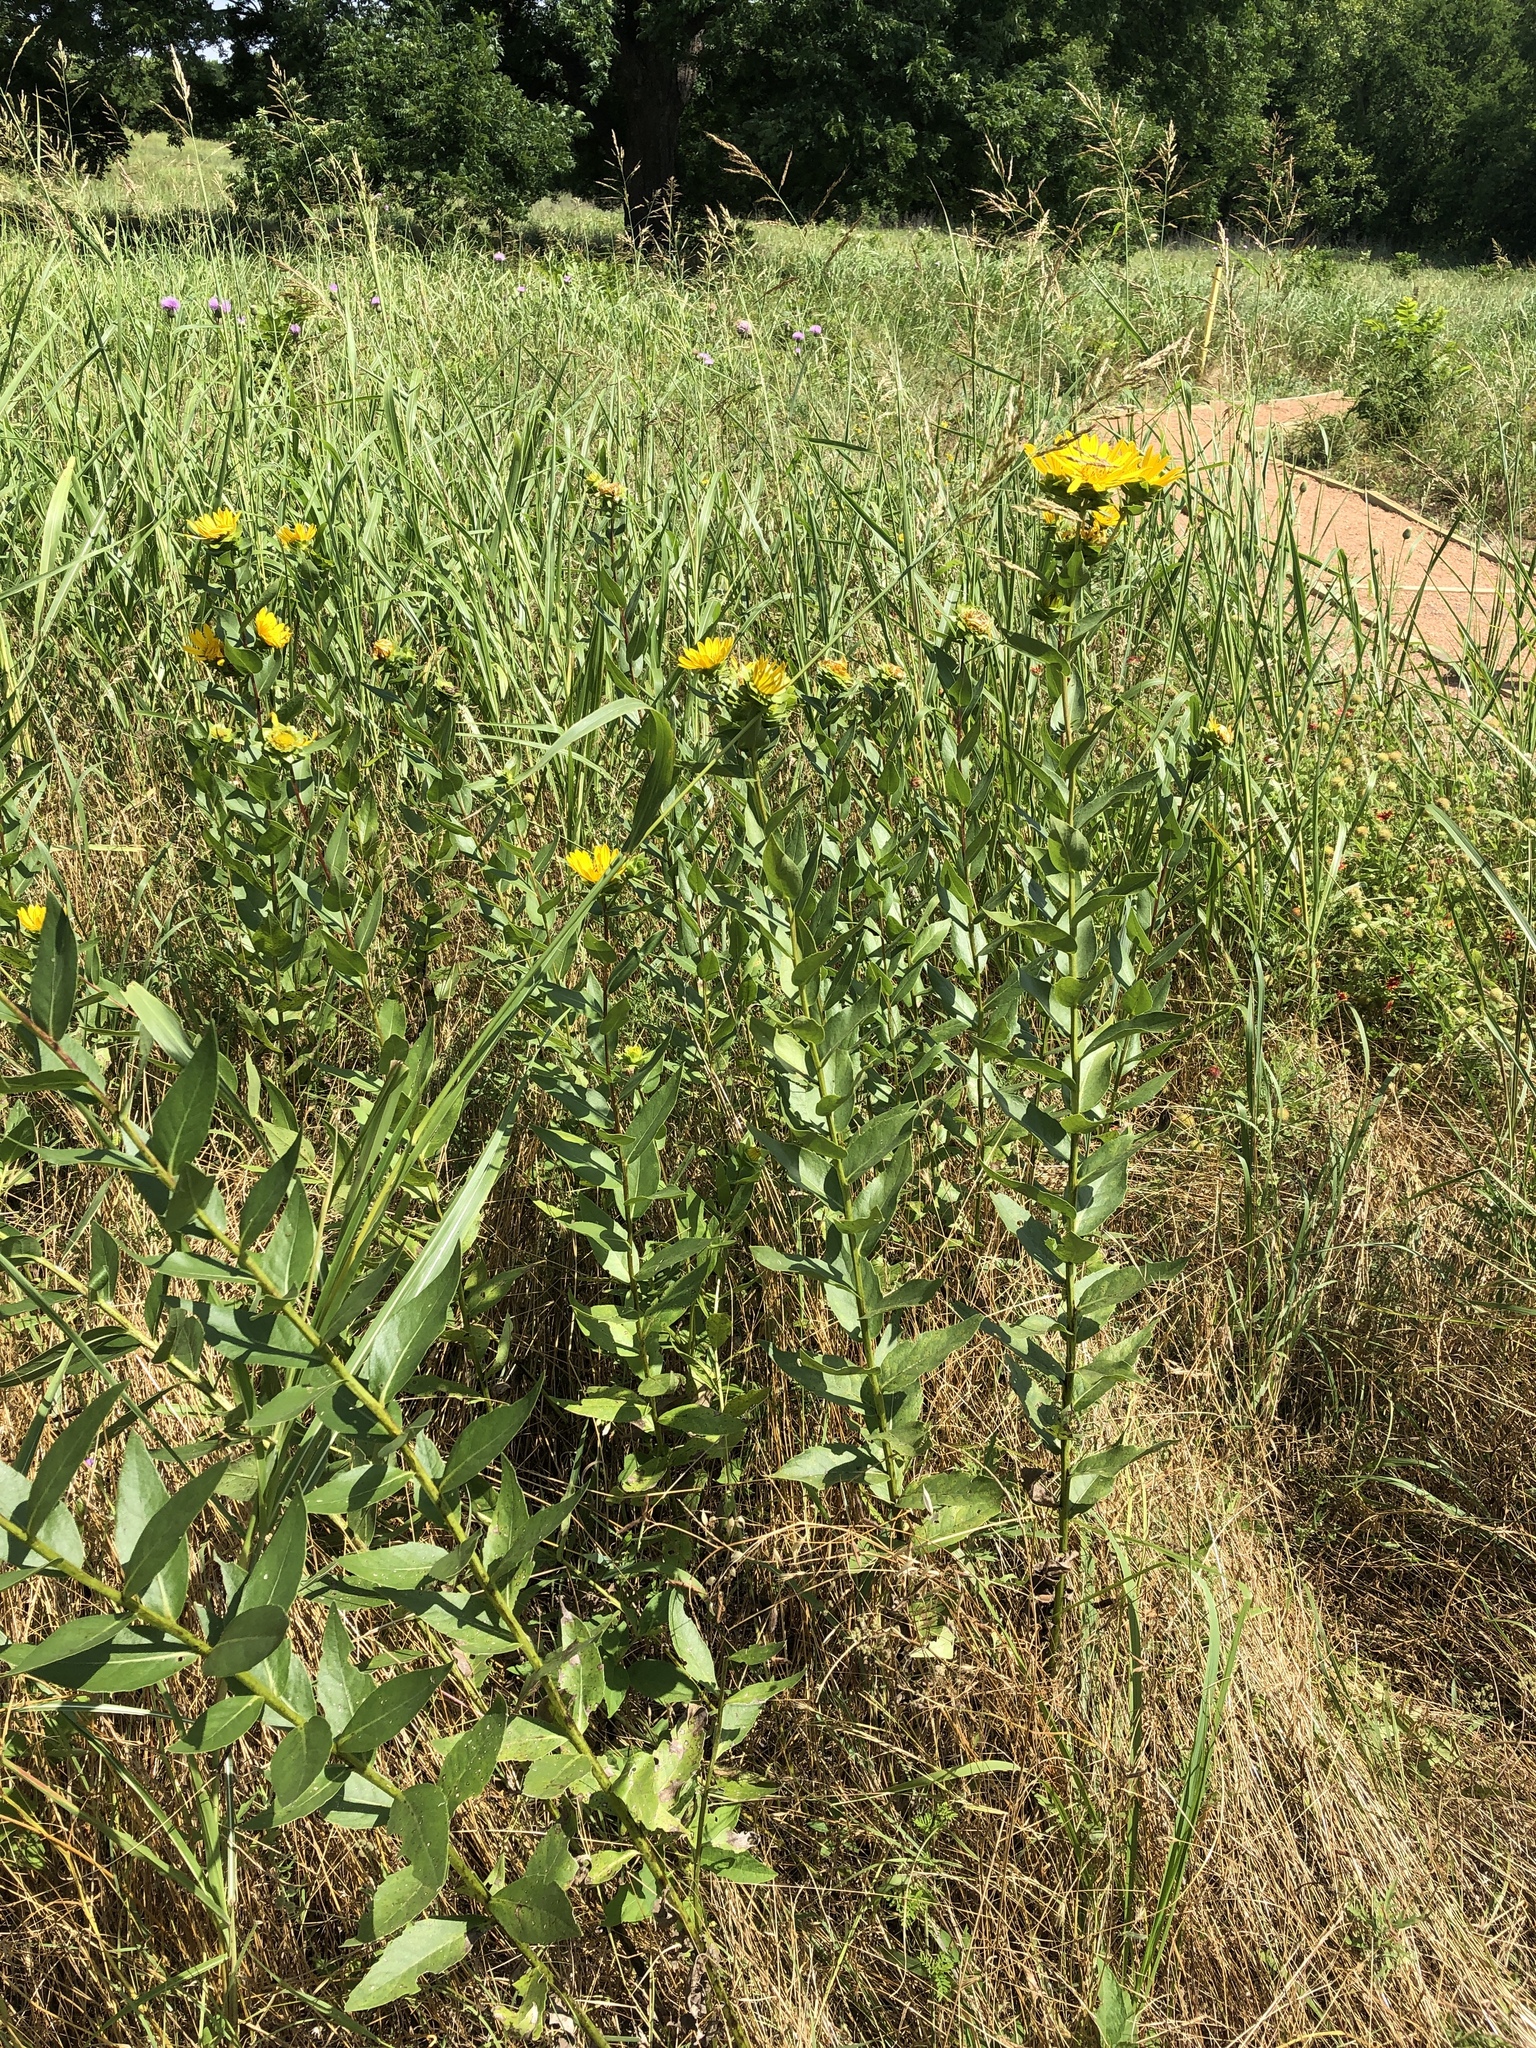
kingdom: Plantae
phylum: Tracheophyta
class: Magnoliopsida
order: Asterales
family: Asteraceae
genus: Silphium
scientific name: Silphium radula
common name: Roughleaf rosinweed
